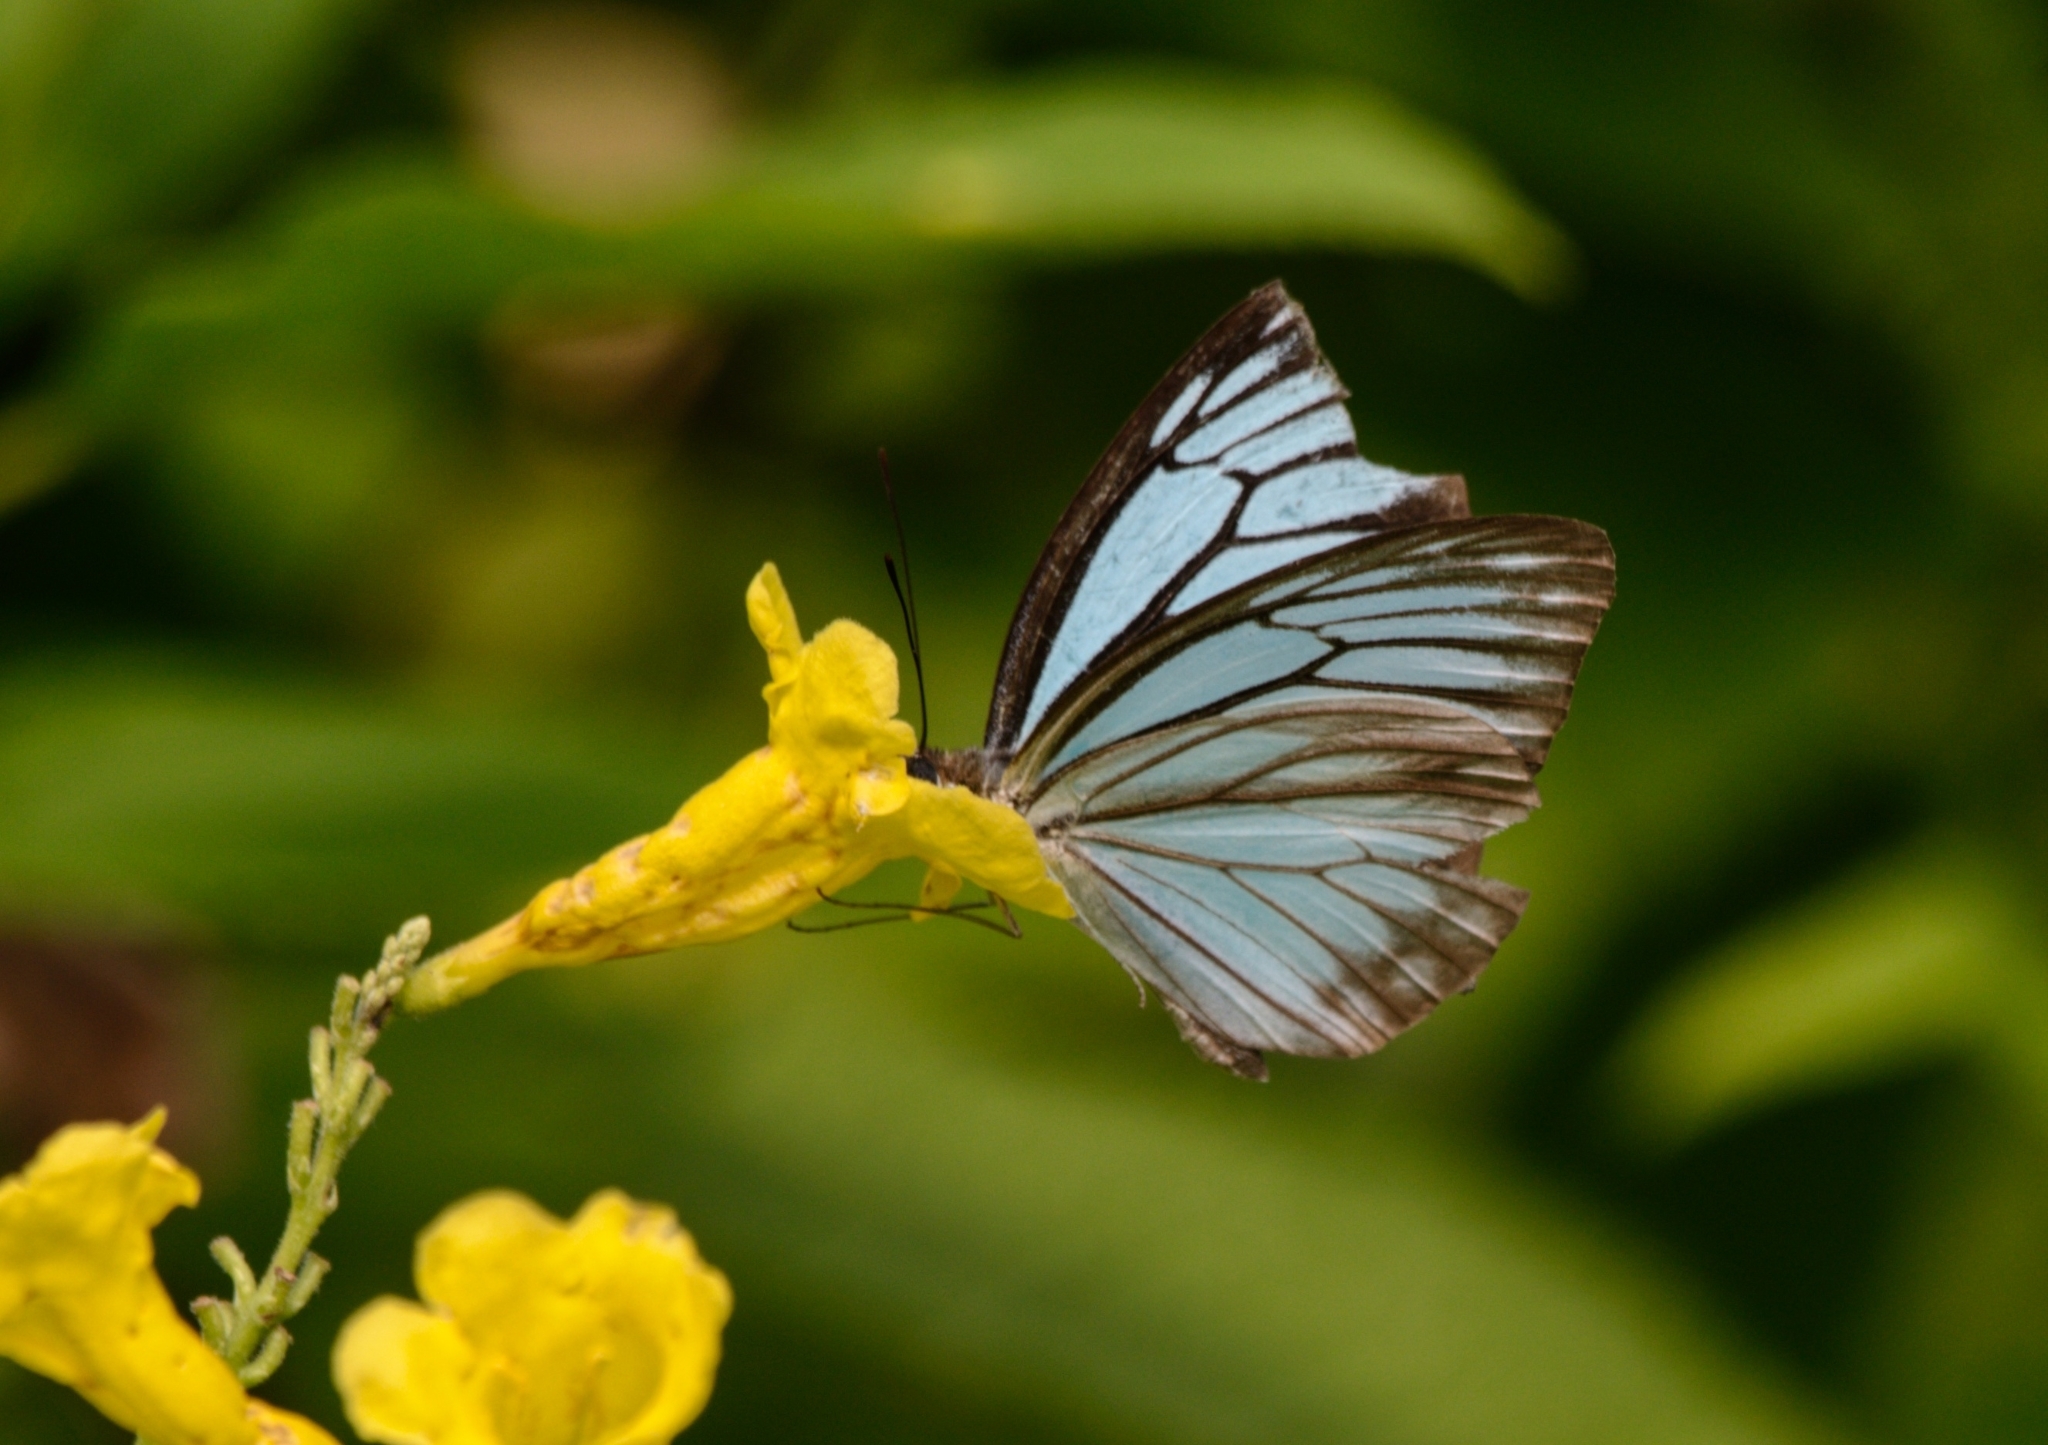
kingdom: Animalia
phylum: Arthropoda
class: Insecta
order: Lepidoptera
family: Pieridae
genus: Pareronia
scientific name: Pareronia hippia
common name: Indian wanderer
